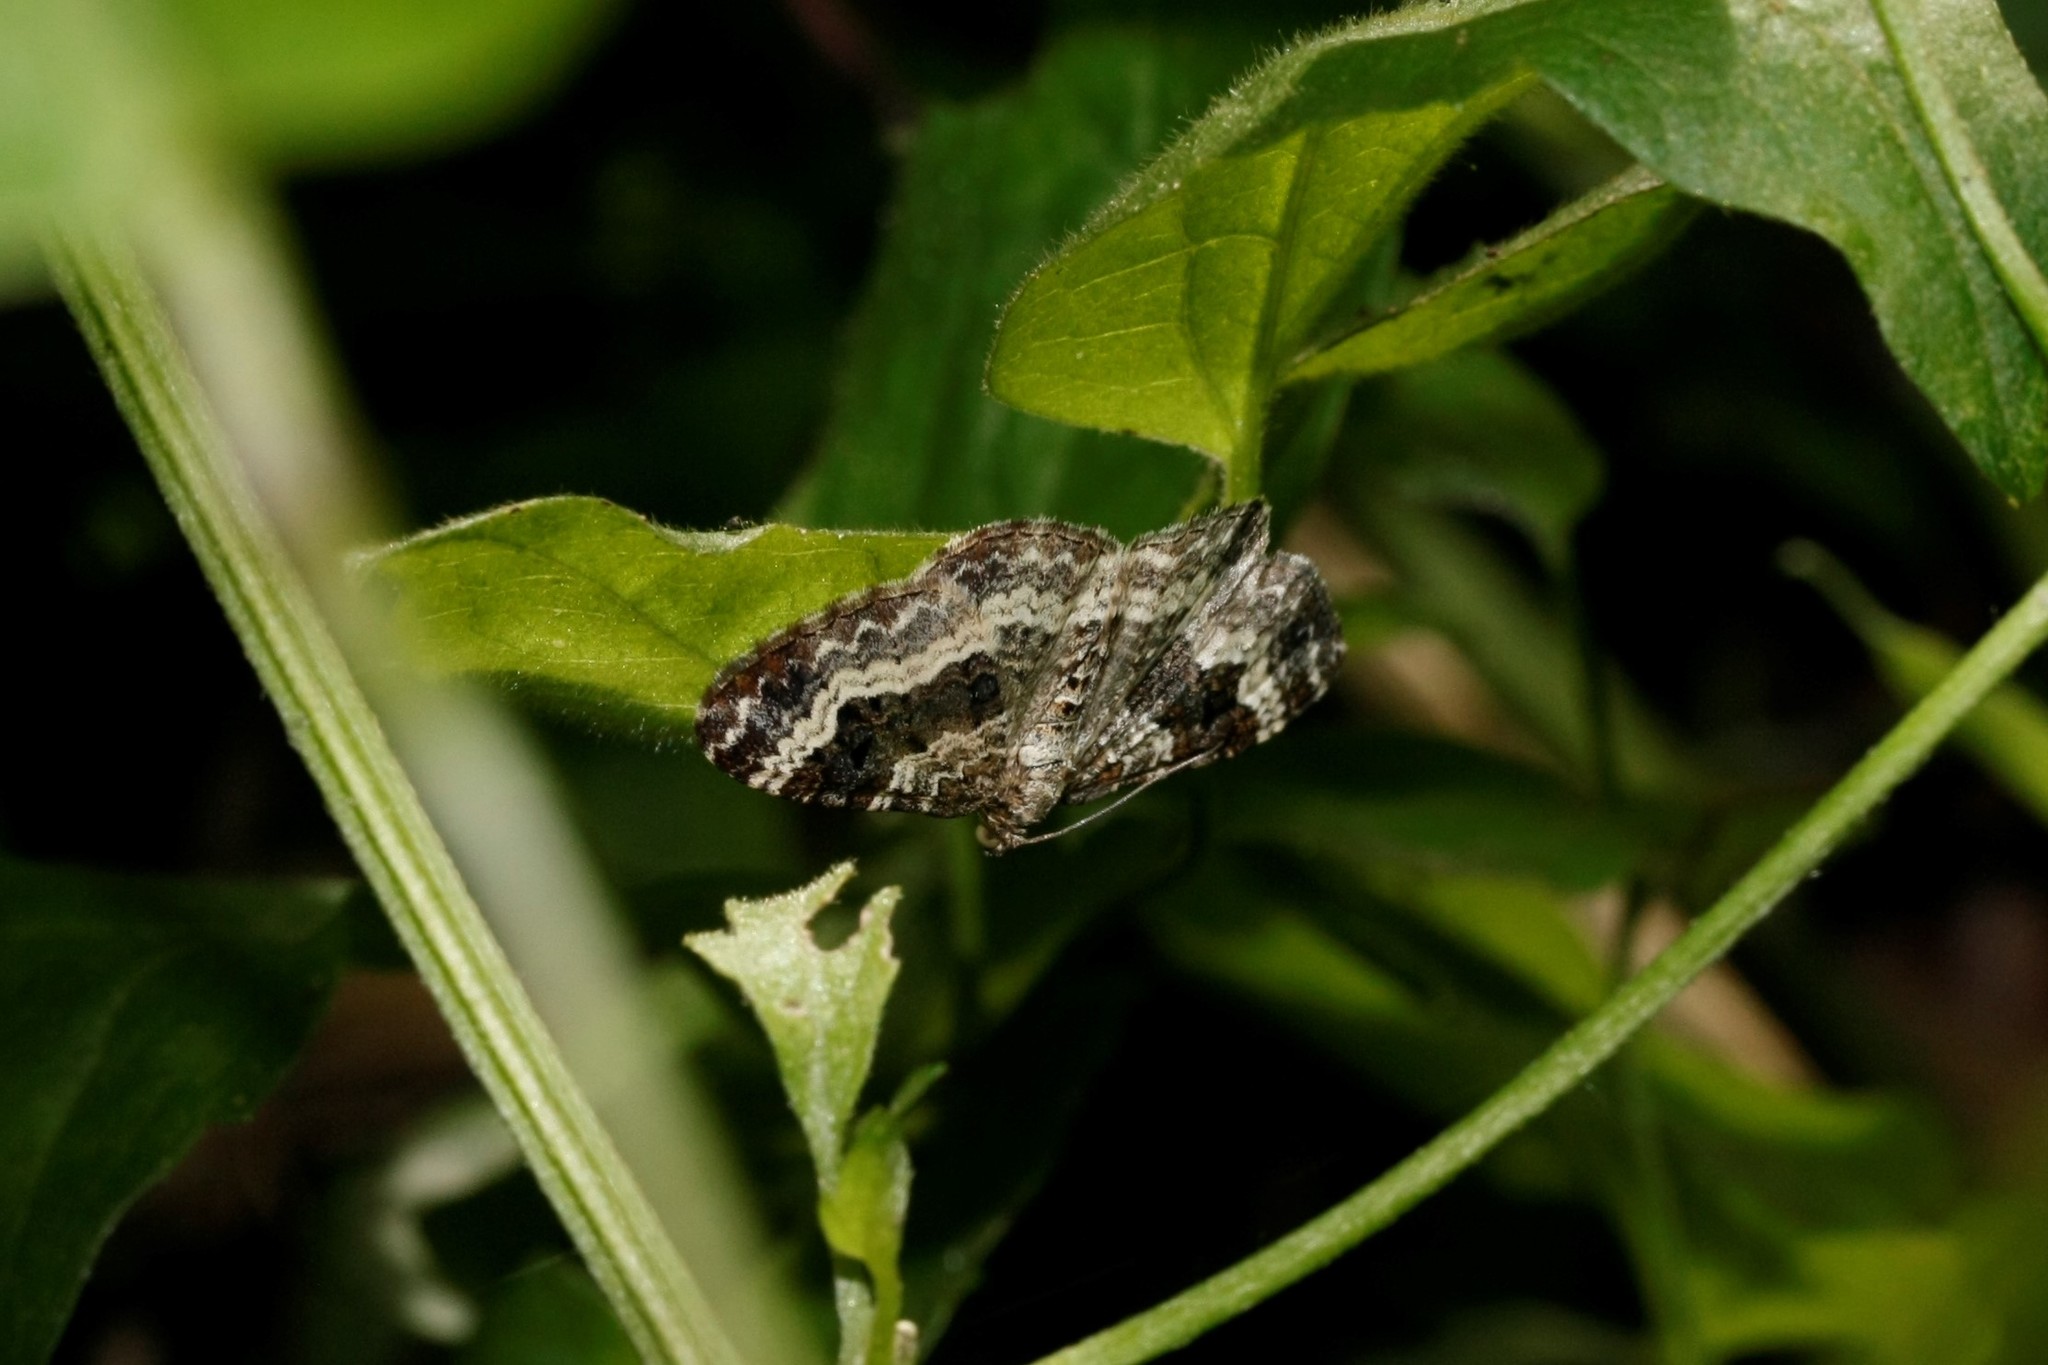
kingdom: Animalia
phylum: Arthropoda
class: Insecta
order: Lepidoptera
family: Geometridae
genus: Epirrhoe
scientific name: Epirrhoe alternata
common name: Common carpet
